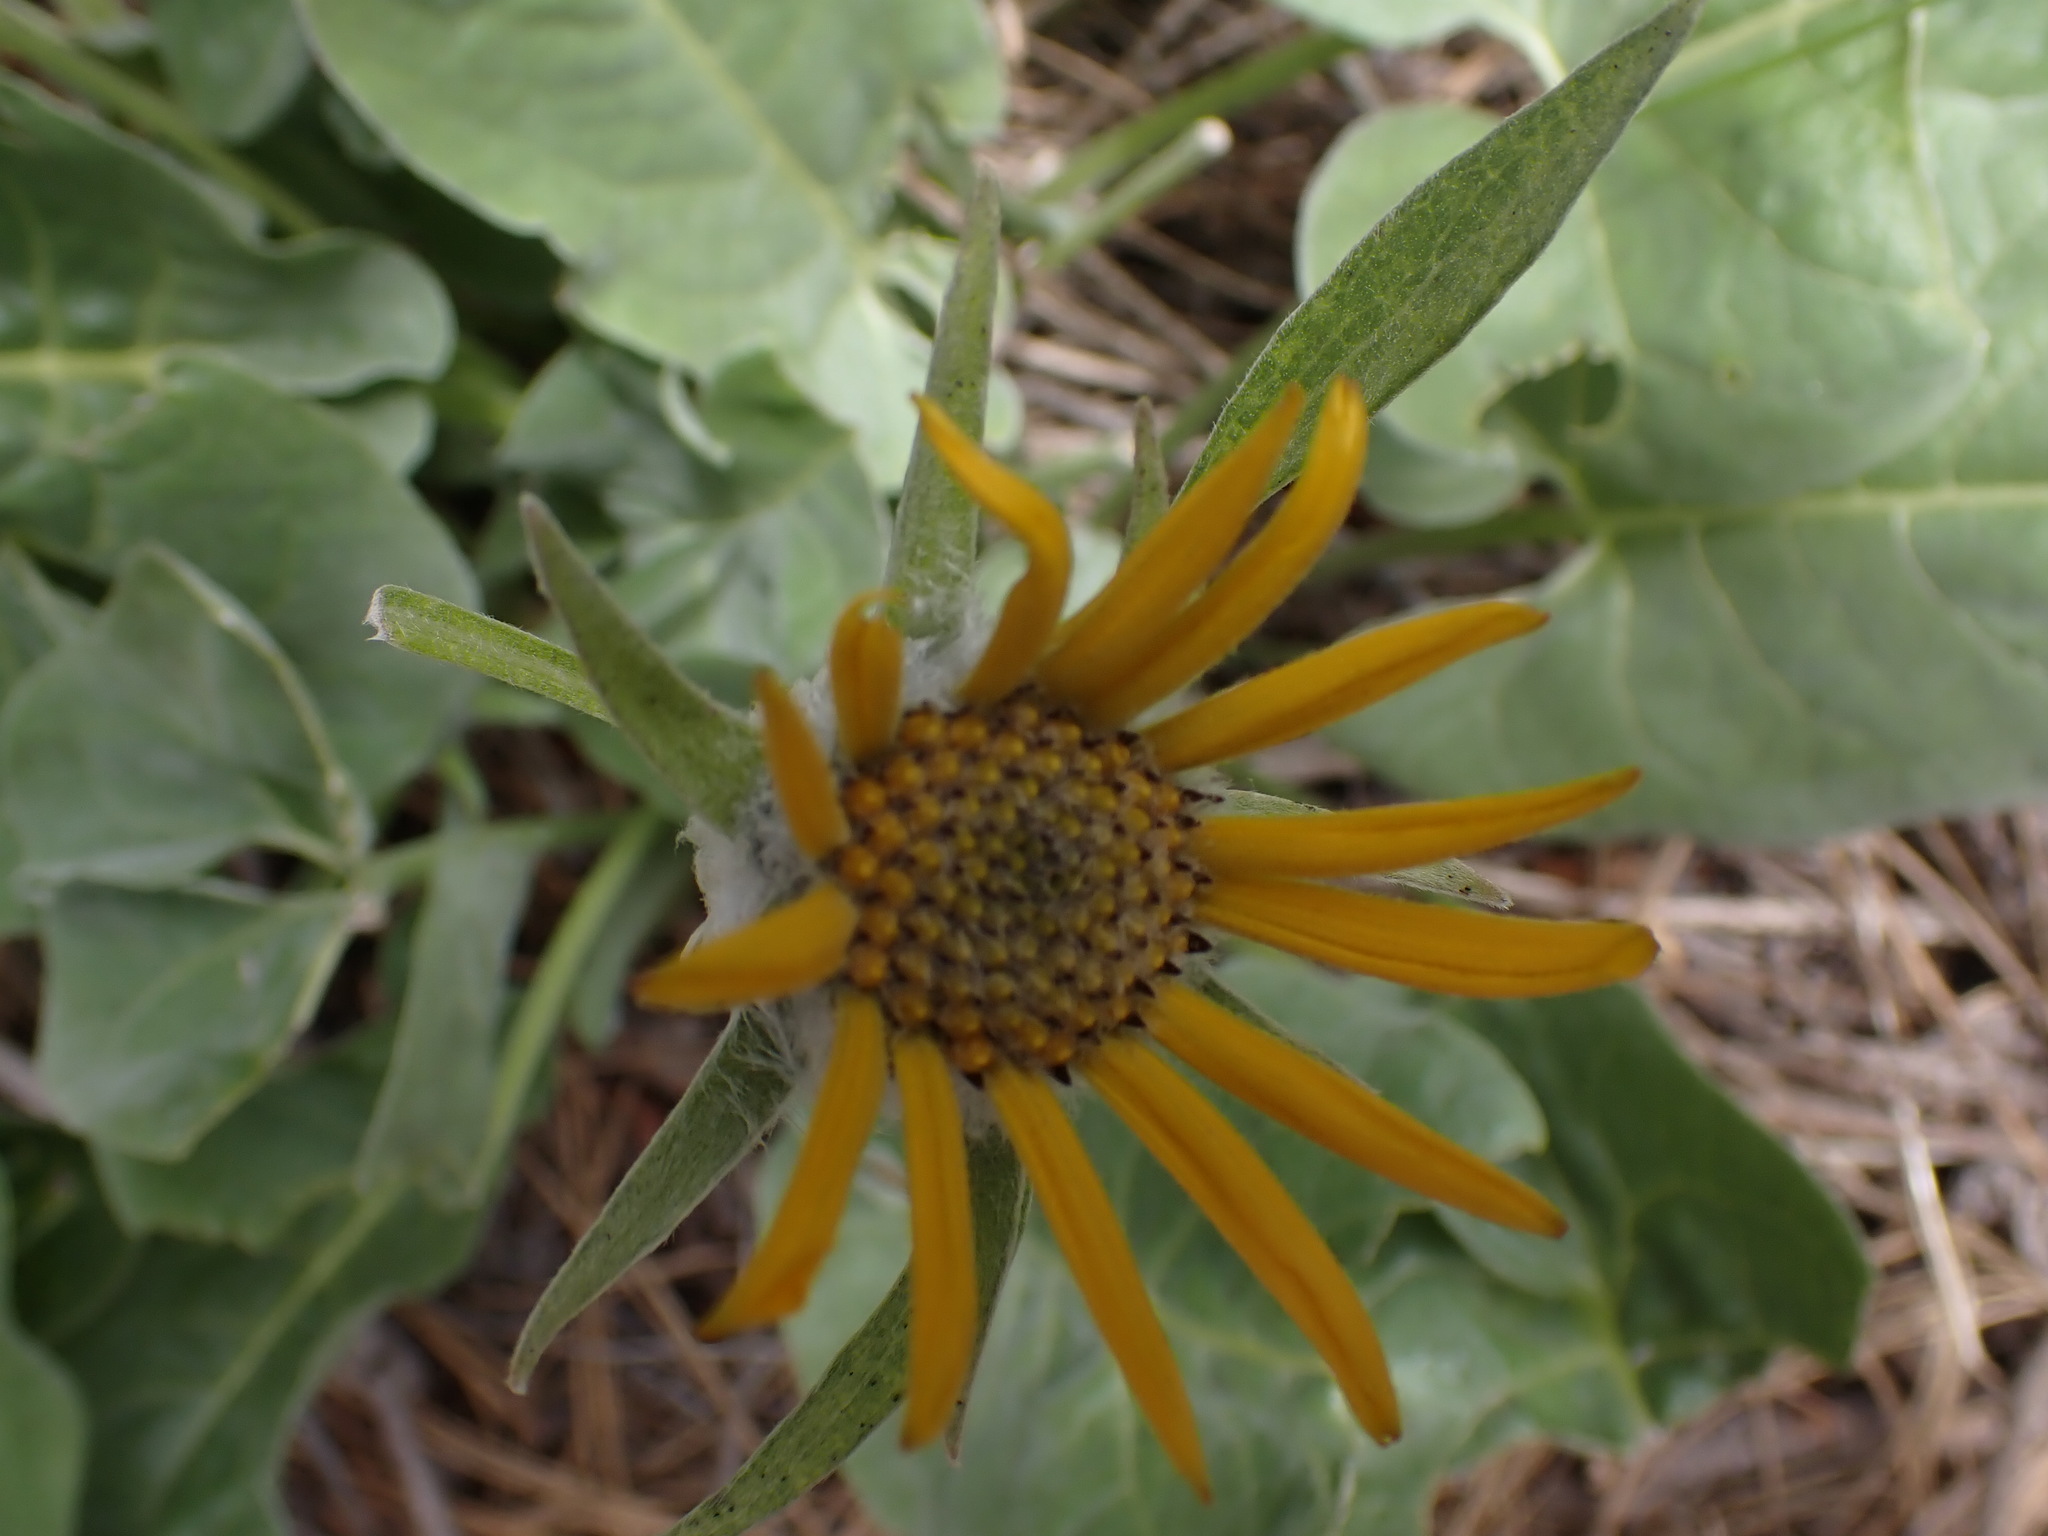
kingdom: Plantae
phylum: Tracheophyta
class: Magnoliopsida
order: Asterales
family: Asteraceae
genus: Wyethia
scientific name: Wyethia sagittata
